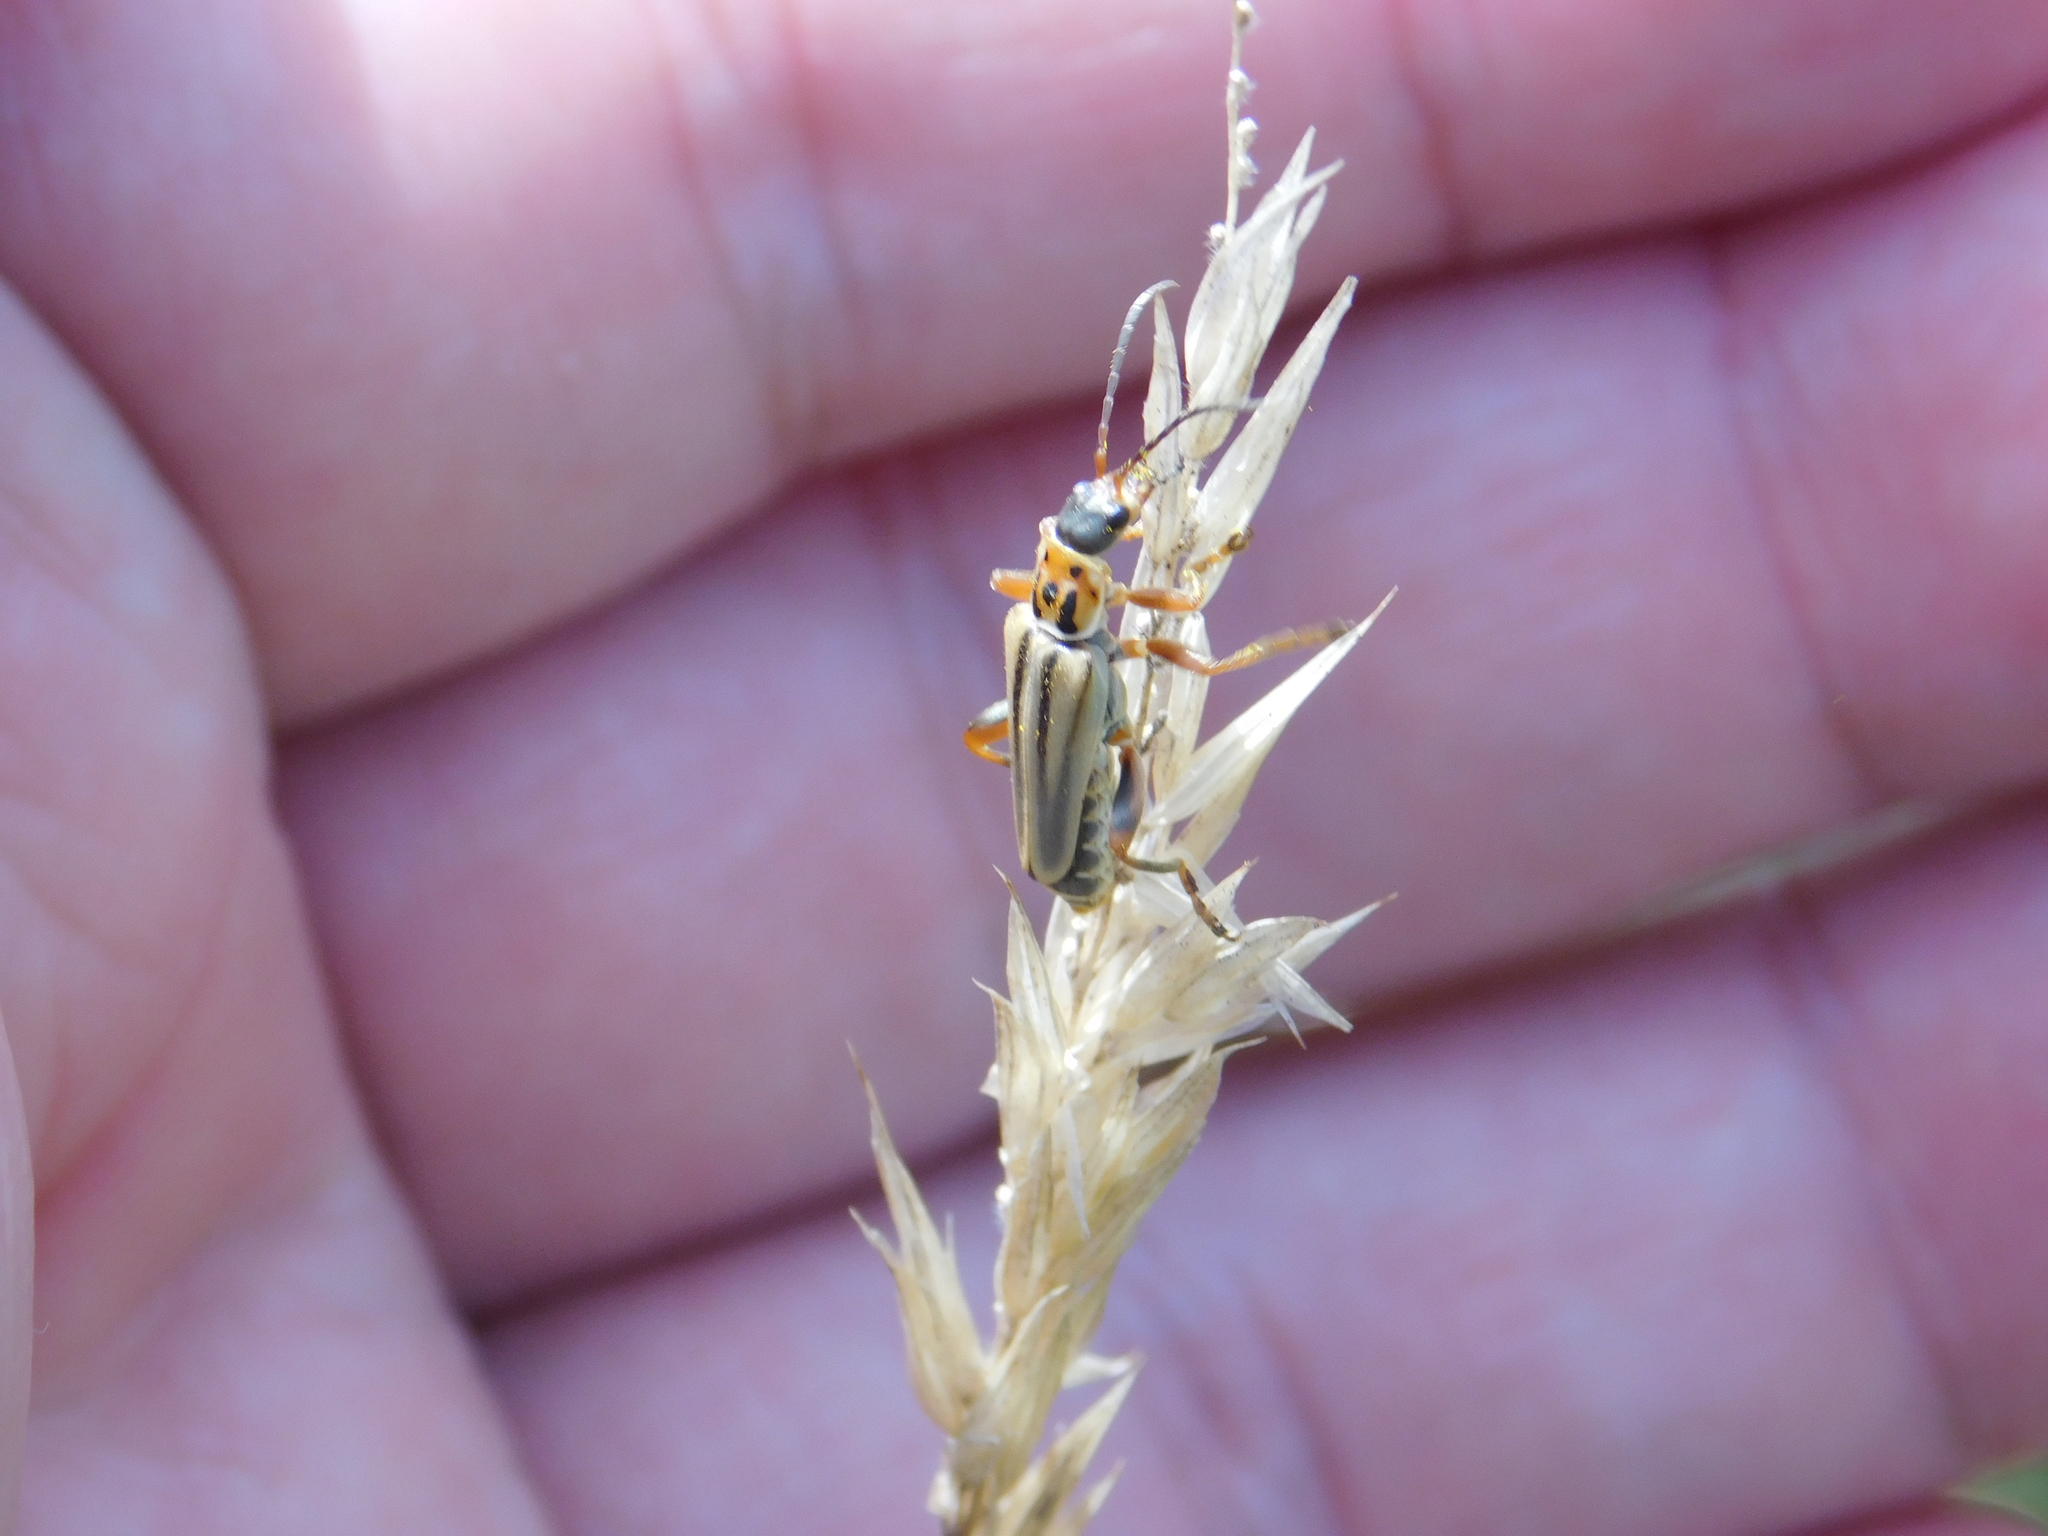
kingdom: Animalia
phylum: Arthropoda
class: Insecta
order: Coleoptera
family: Cantharidae
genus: Chauliognathus
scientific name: Chauliognathus
